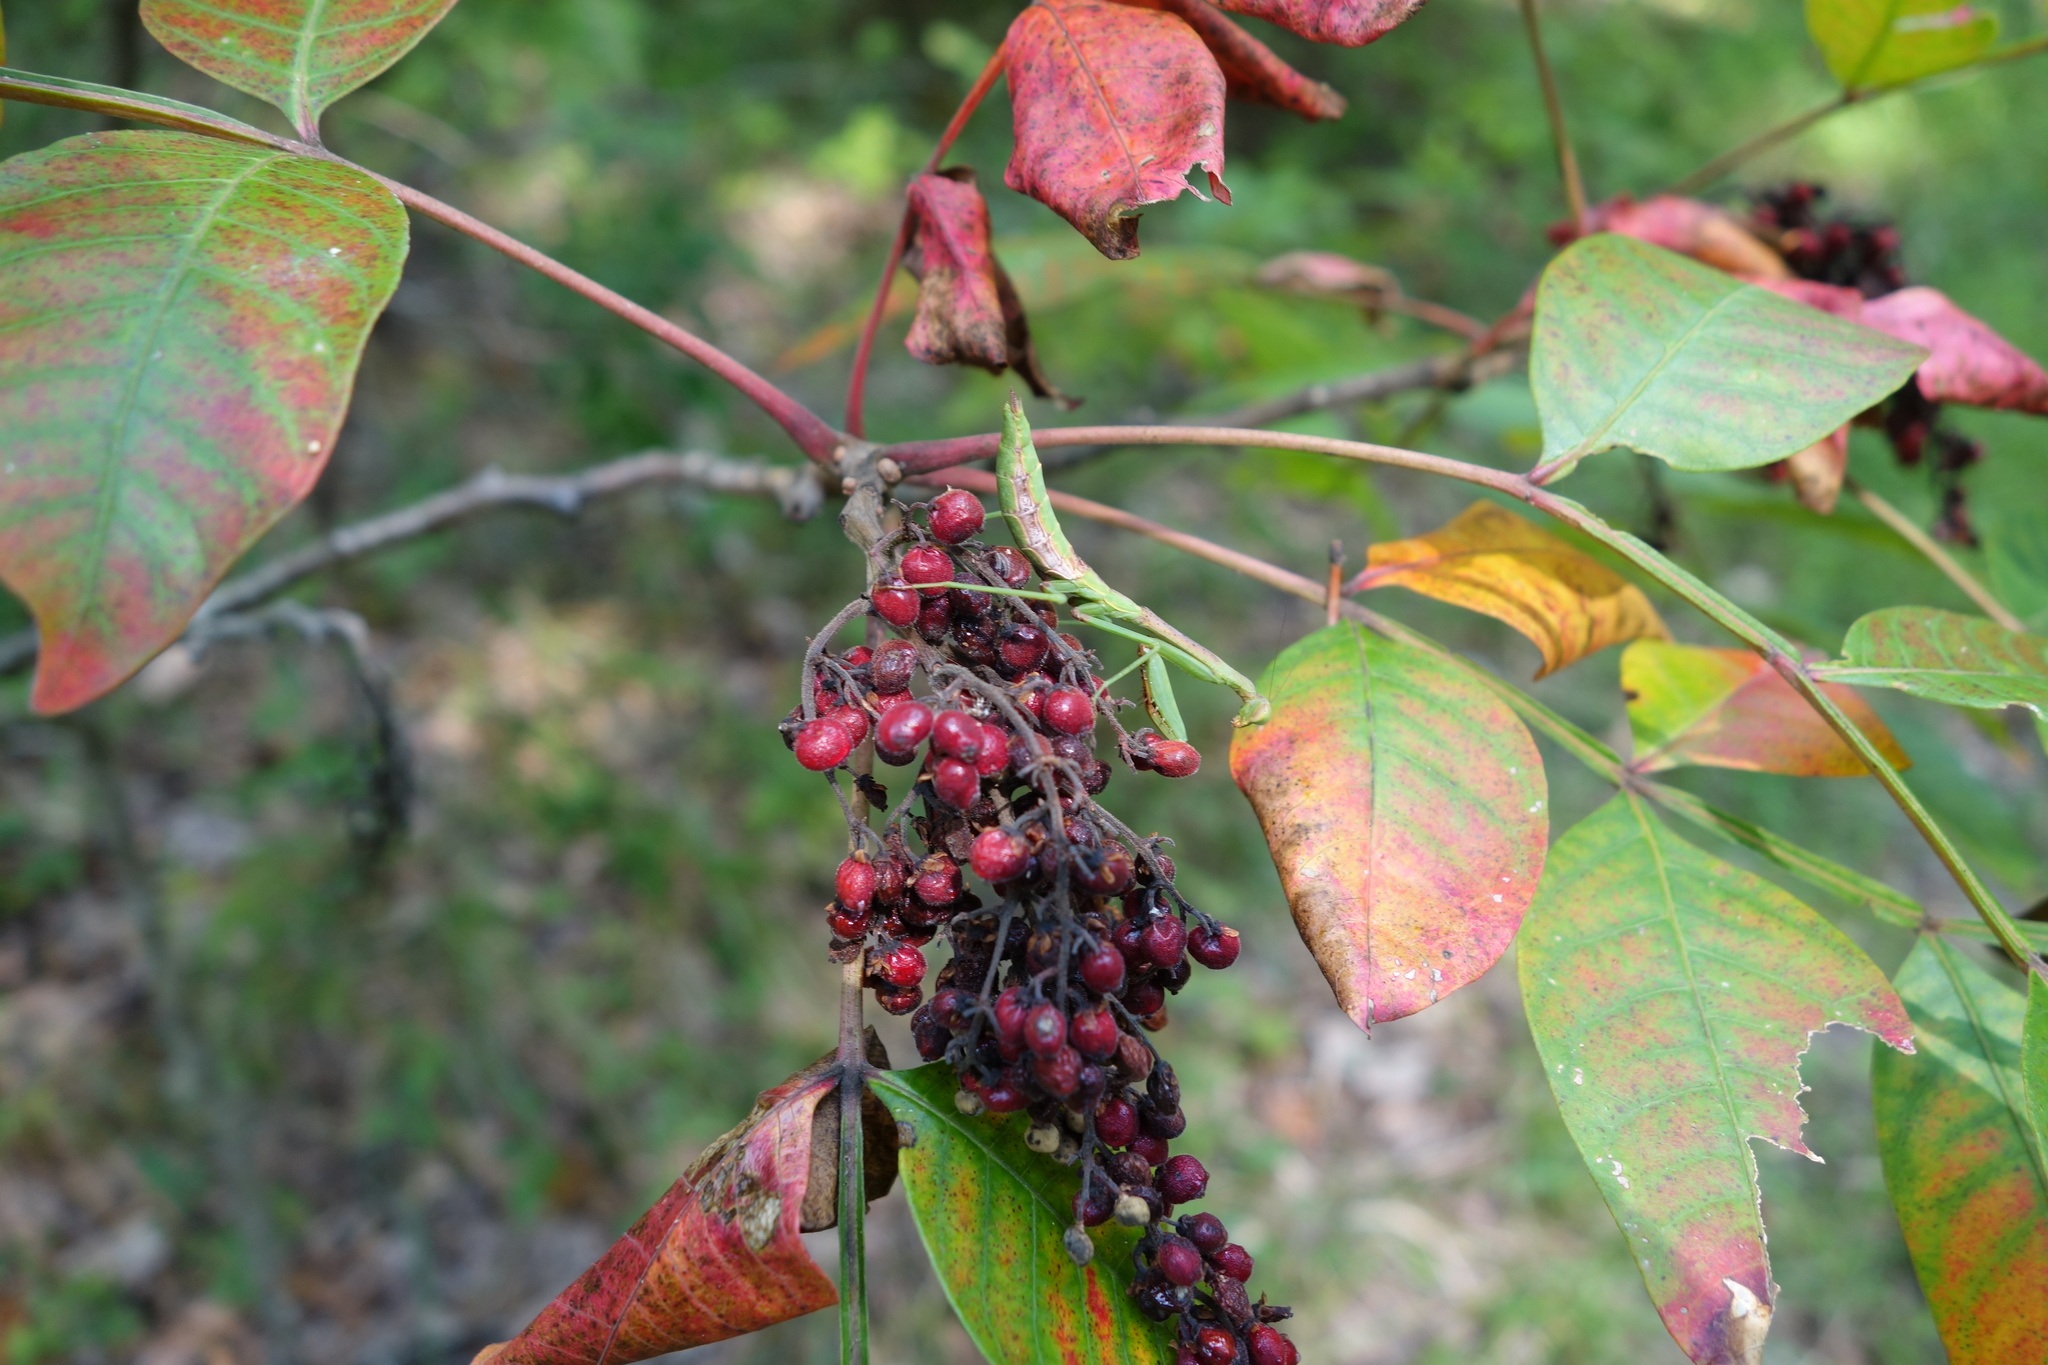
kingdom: Animalia
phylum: Arthropoda
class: Insecta
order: Mantodea
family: Mantidae
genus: Stagmomantis
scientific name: Stagmomantis carolina
